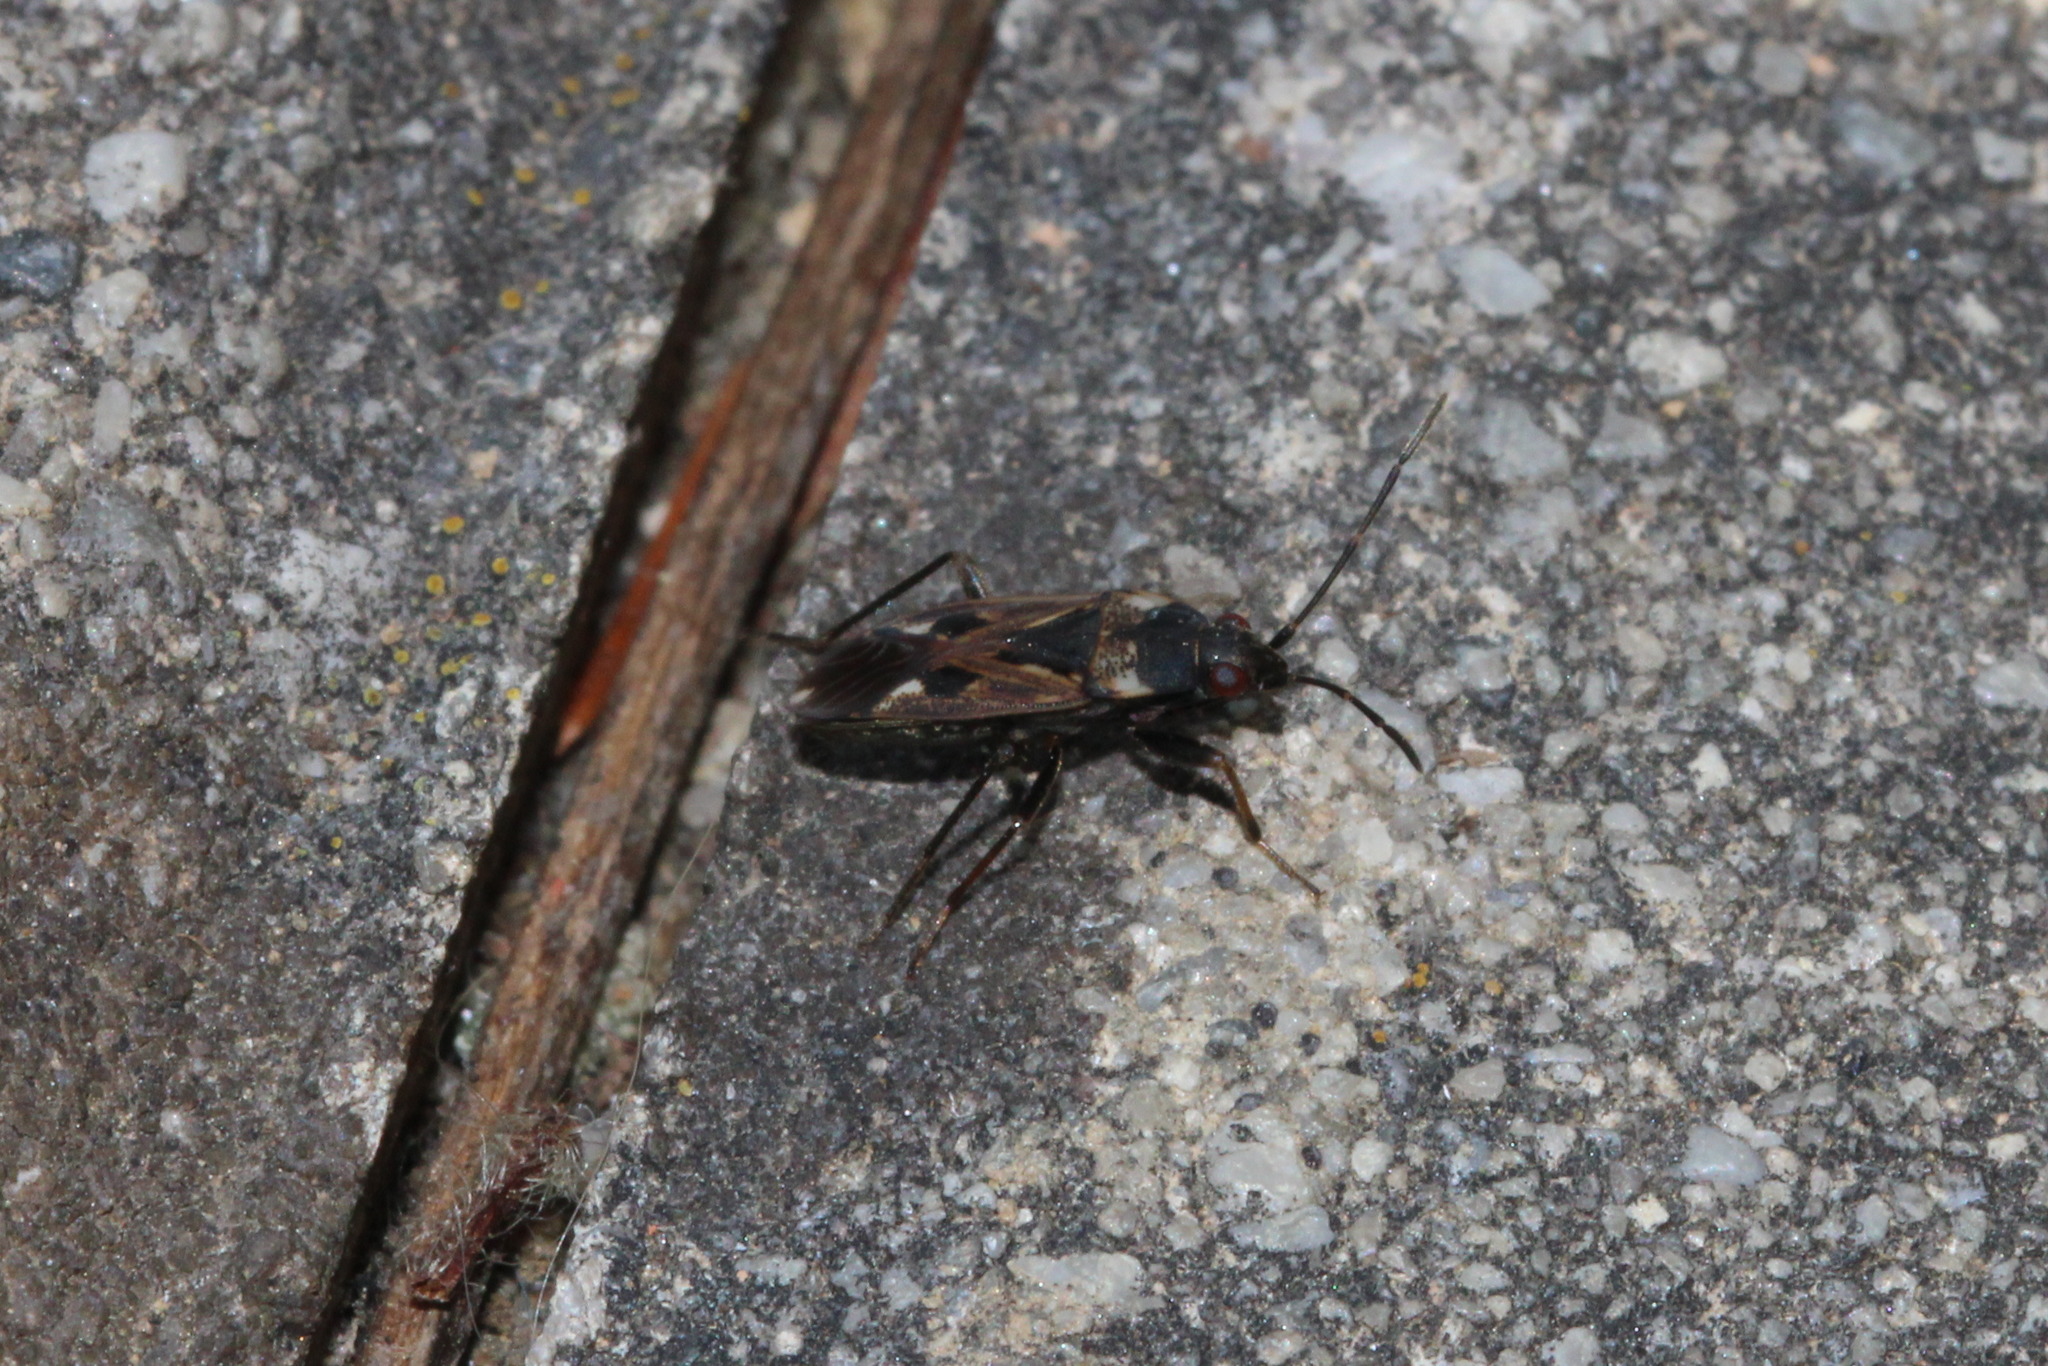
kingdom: Animalia
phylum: Arthropoda
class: Insecta
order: Hemiptera
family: Rhyparochromidae
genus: Rhyparochromus
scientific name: Rhyparochromus vulgaris
